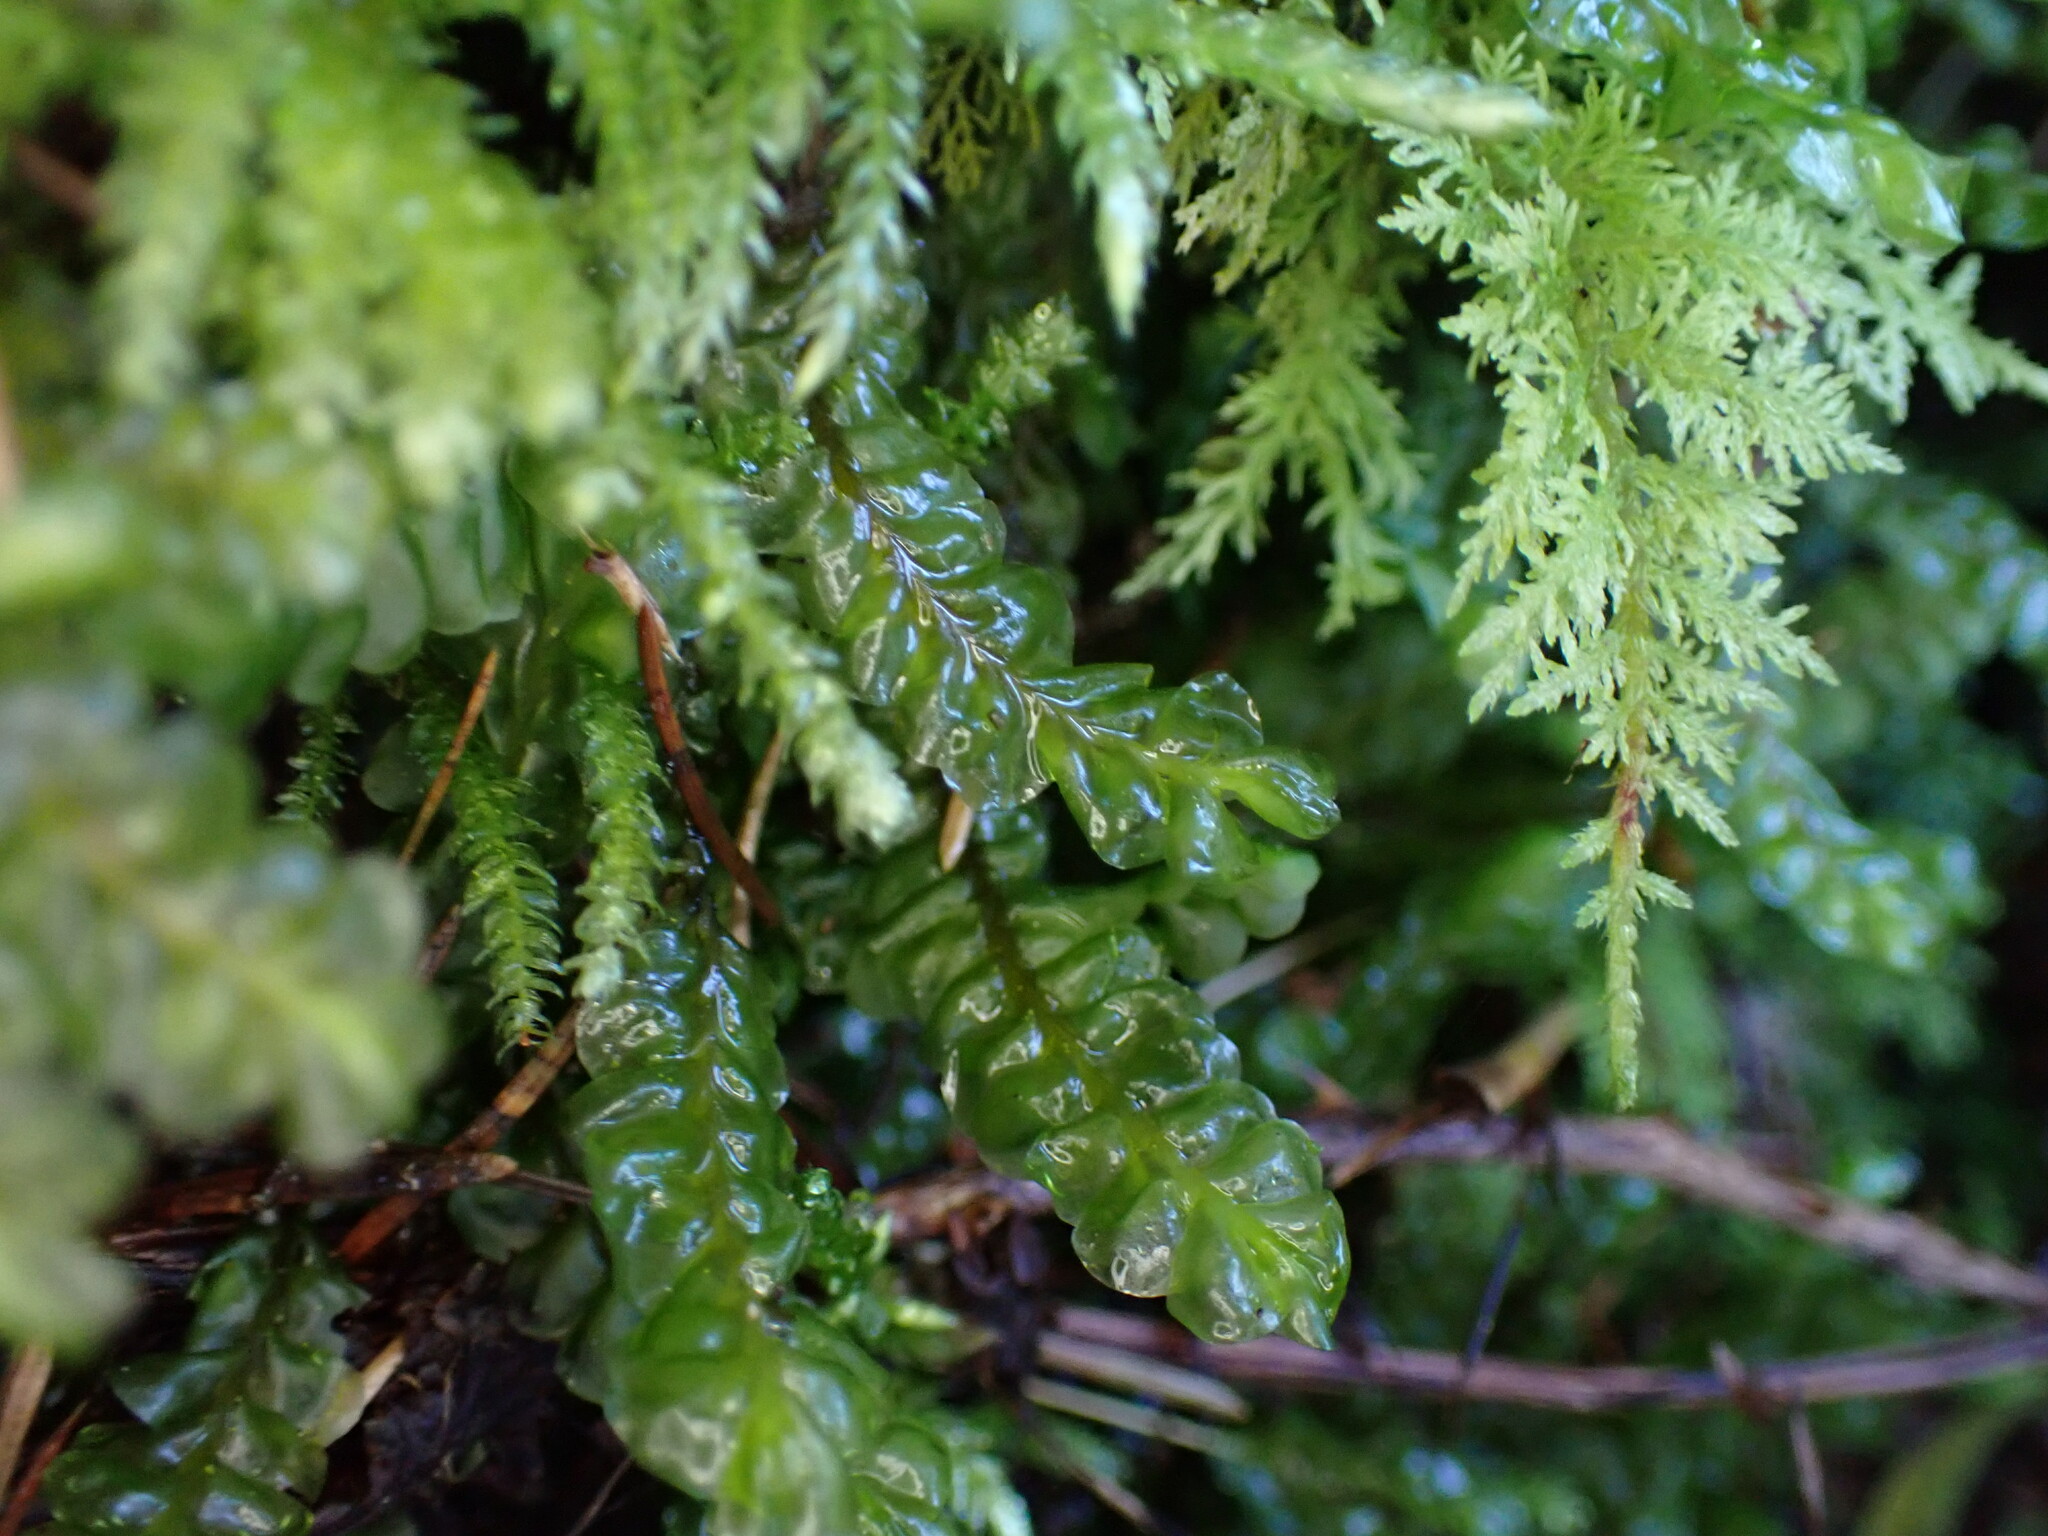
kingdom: Plantae
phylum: Marchantiophyta
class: Jungermanniopsida
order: Jungermanniales
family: Plagiochilaceae
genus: Plagiochila
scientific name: Plagiochila asplenioides
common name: Greater featherwort
